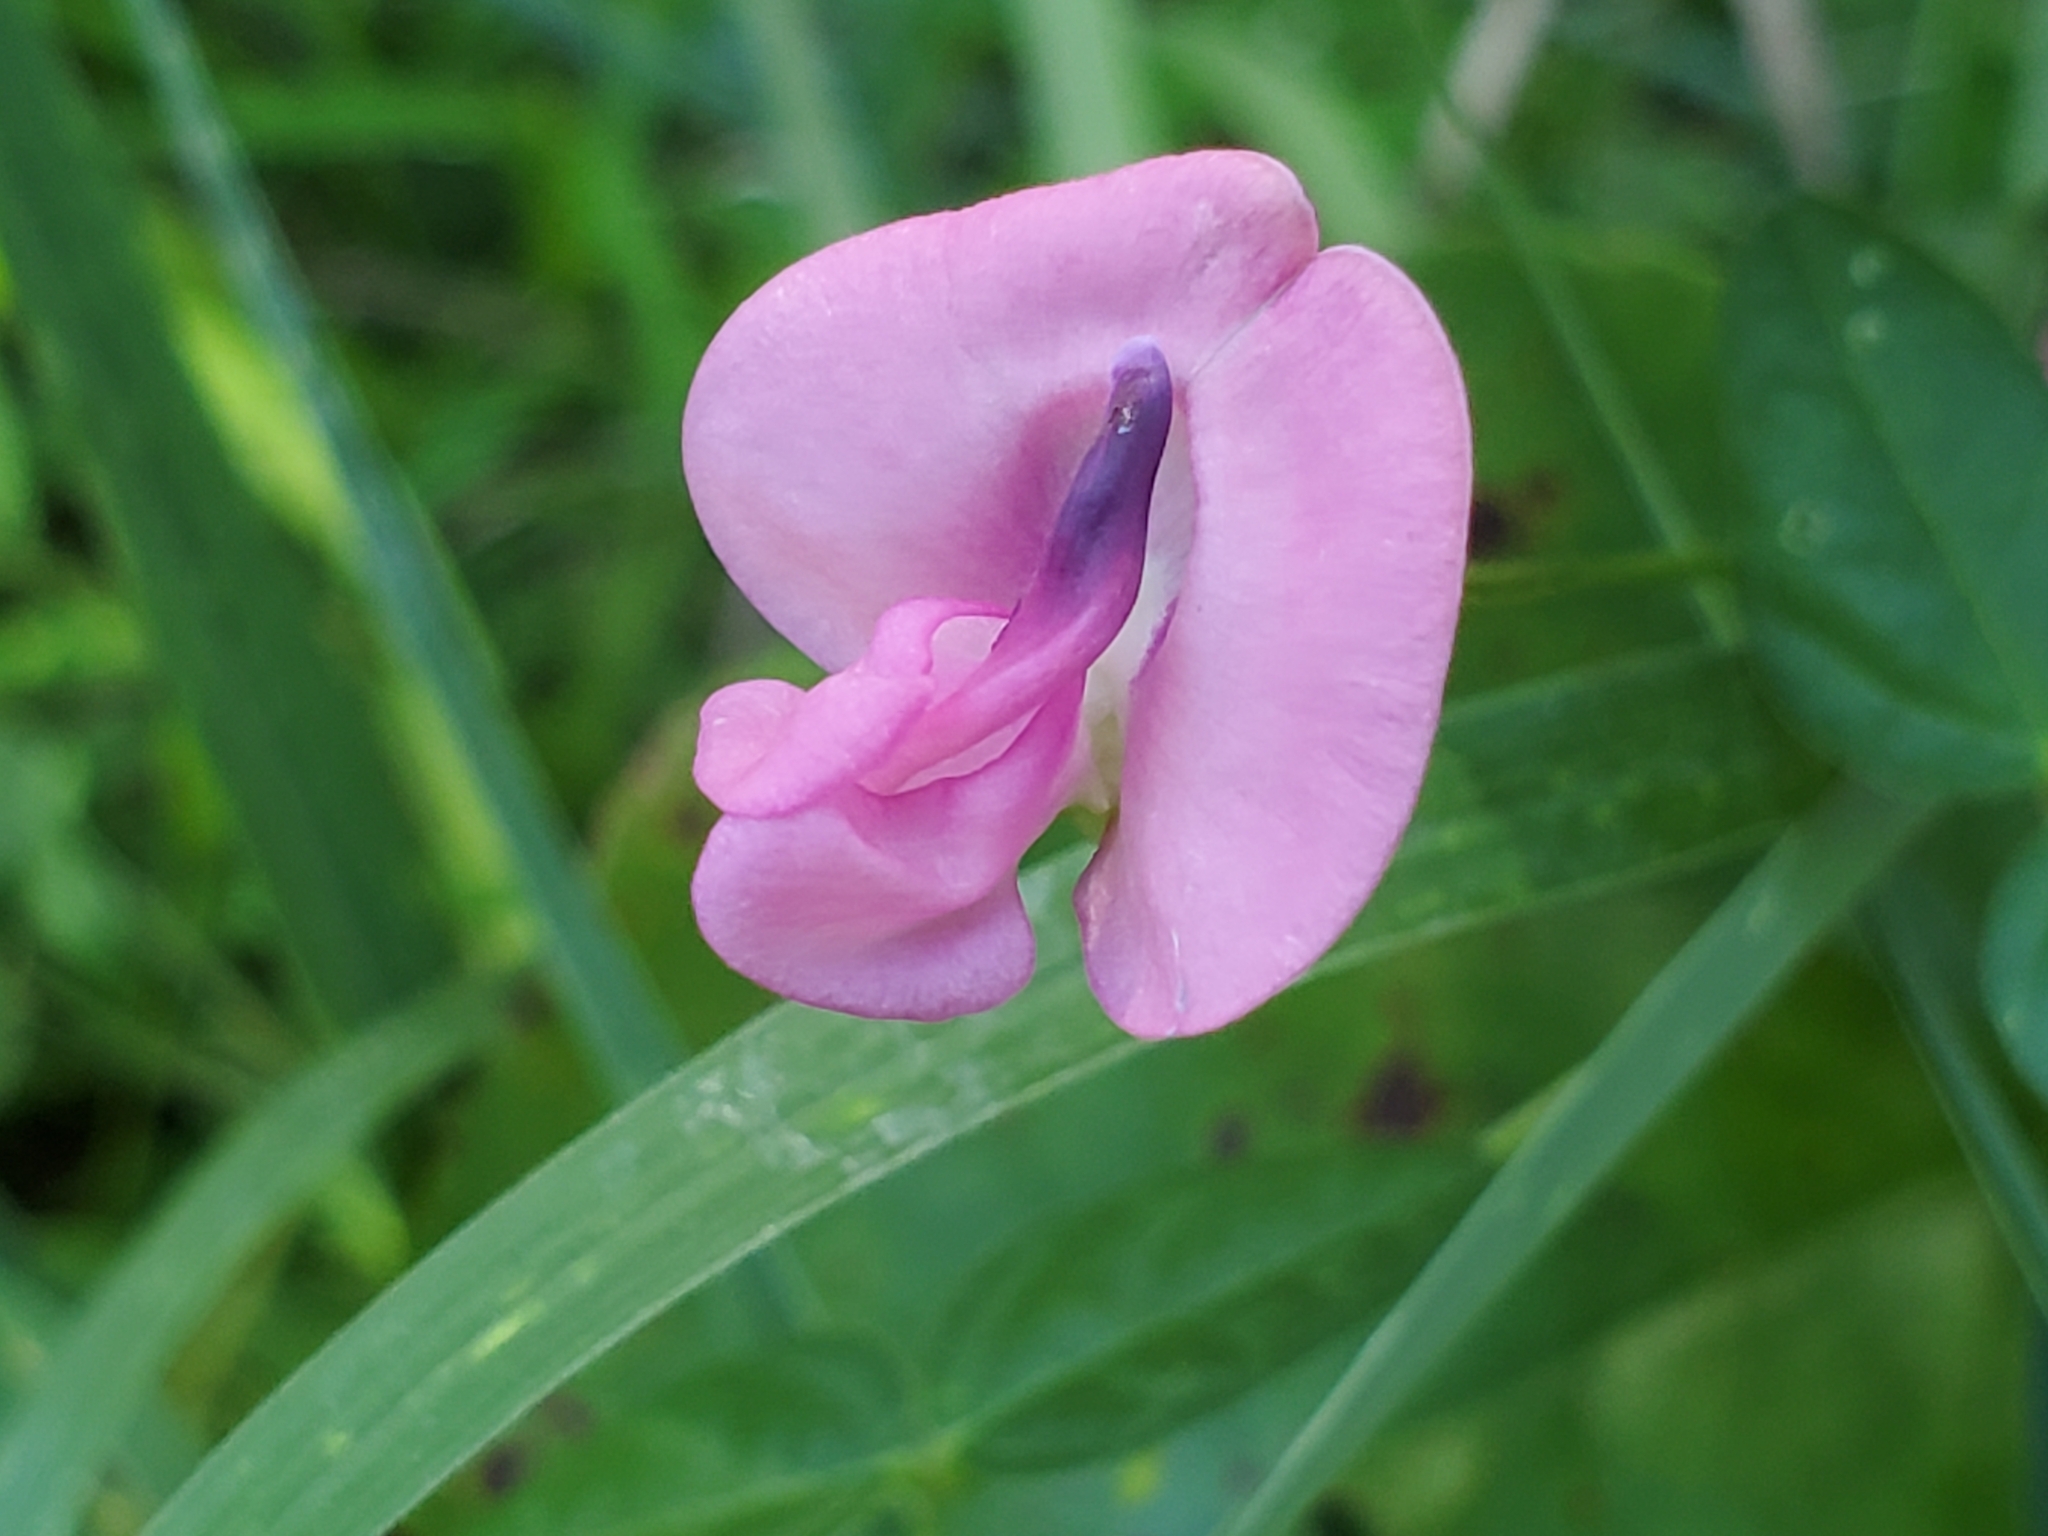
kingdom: Plantae
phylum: Tracheophyta
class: Magnoliopsida
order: Fabales
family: Fabaceae
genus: Strophostyles
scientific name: Strophostyles umbellata
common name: Perennial wild bean
